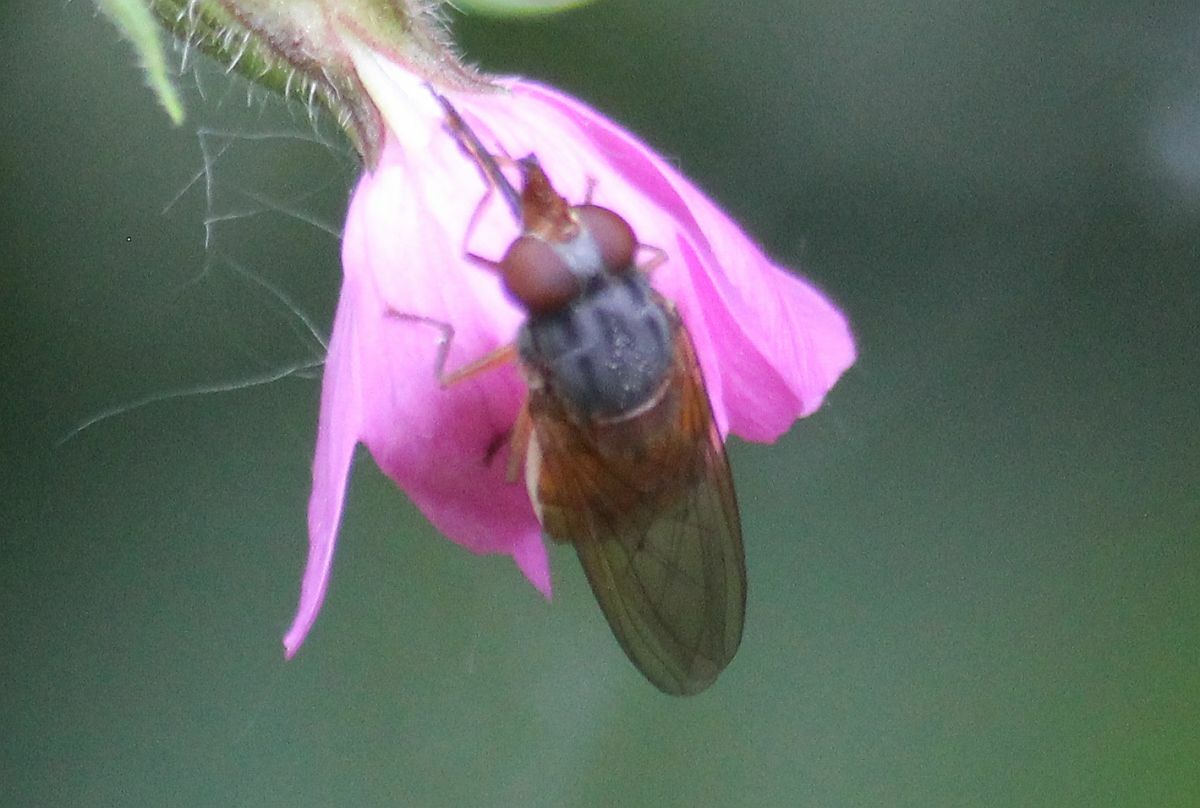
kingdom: Animalia
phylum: Arthropoda
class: Insecta
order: Diptera
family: Syrphidae
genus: Rhingia
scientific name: Rhingia rostrata
